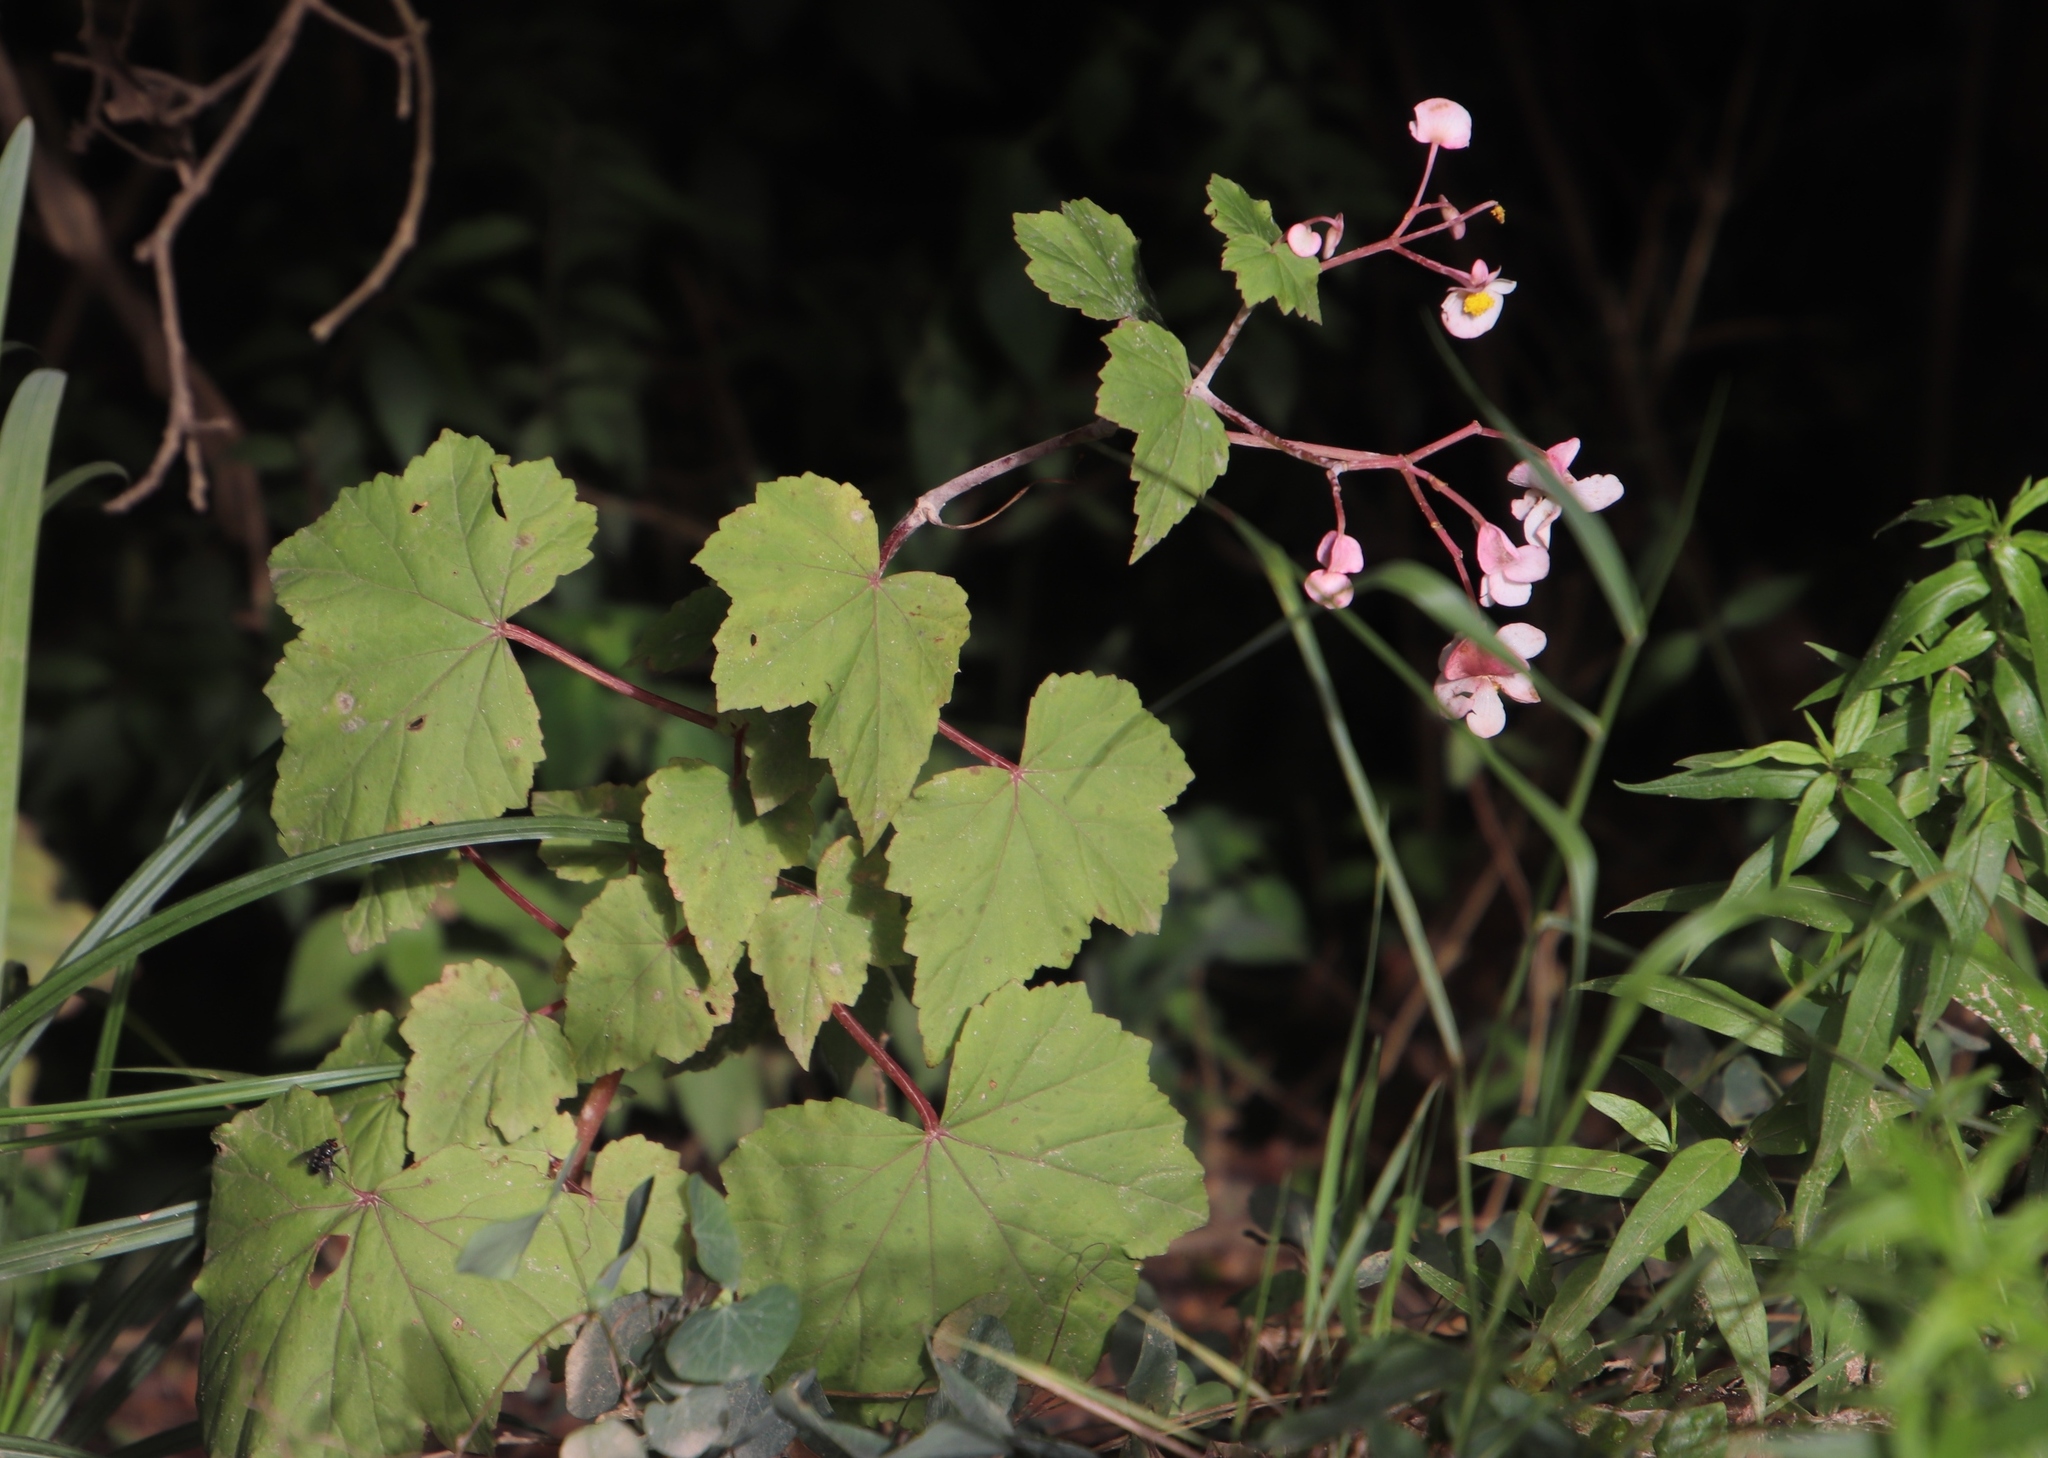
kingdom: Plantae
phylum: Tracheophyta
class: Magnoliopsida
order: Cucurbitales
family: Begoniaceae
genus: Begonia
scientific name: Begonia sonderiana
